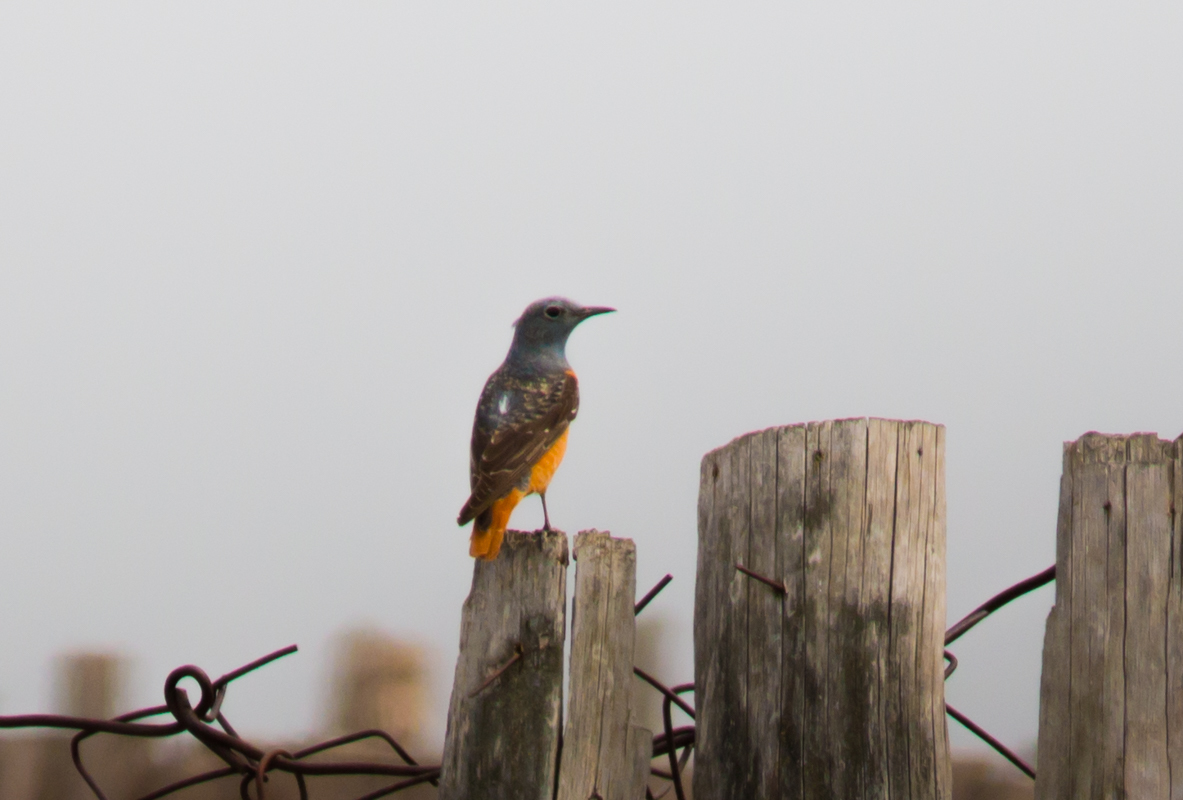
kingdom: Animalia
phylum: Chordata
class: Aves
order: Passeriformes
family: Muscicapidae
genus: Monticola
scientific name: Monticola saxatilis
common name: Rufous-tailed rock thrush
